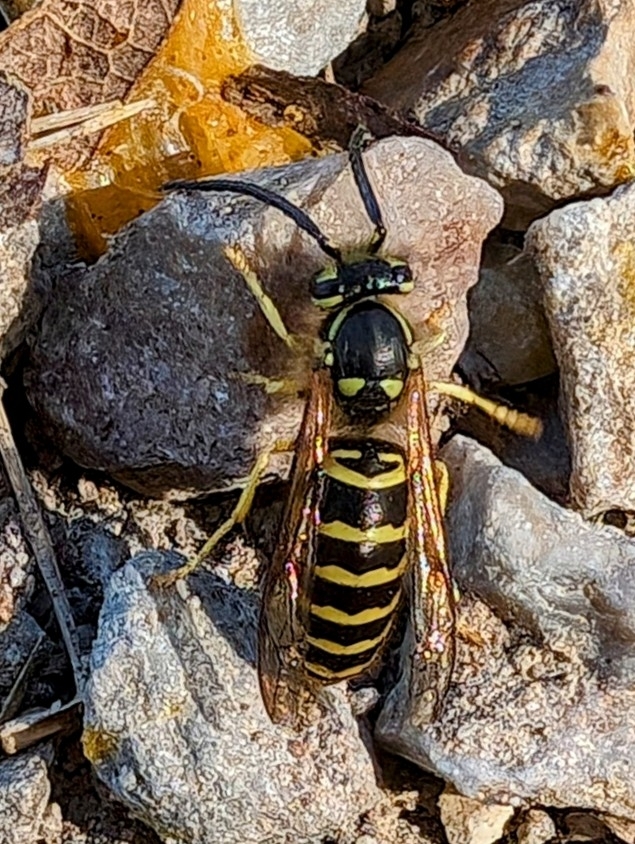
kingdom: Animalia
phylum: Arthropoda
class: Insecta
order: Hymenoptera
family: Vespidae
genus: Vespula
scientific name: Vespula maculifrons
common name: Eastern yellowjacket
